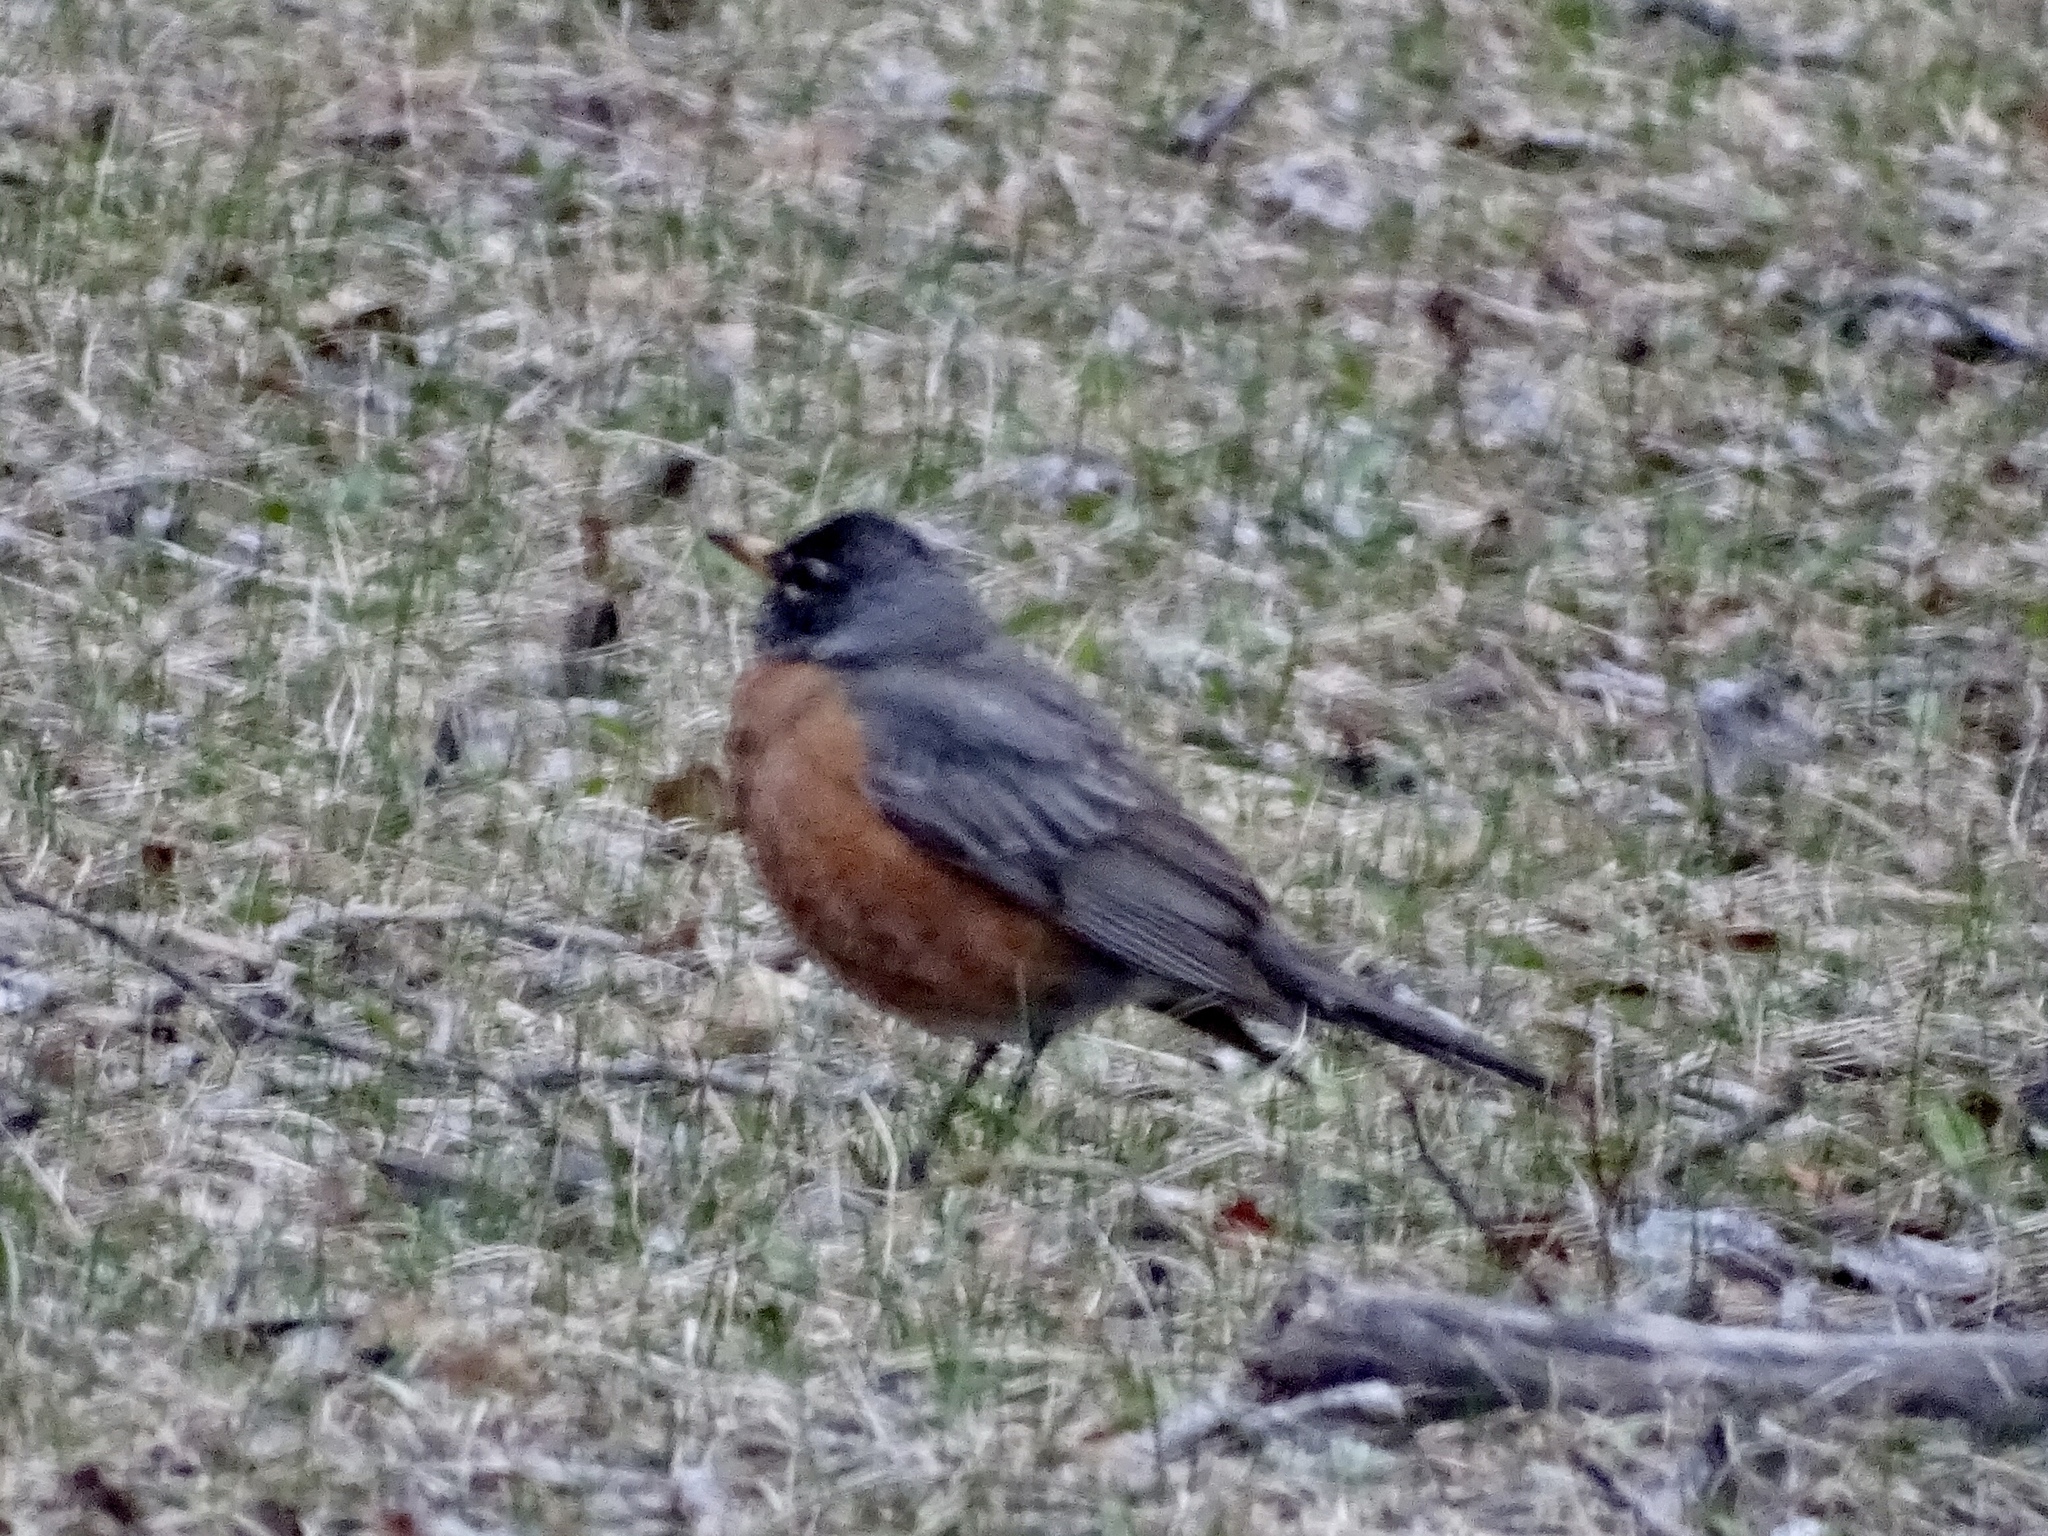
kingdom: Animalia
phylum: Chordata
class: Aves
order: Passeriformes
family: Turdidae
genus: Turdus
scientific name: Turdus migratorius
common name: American robin
